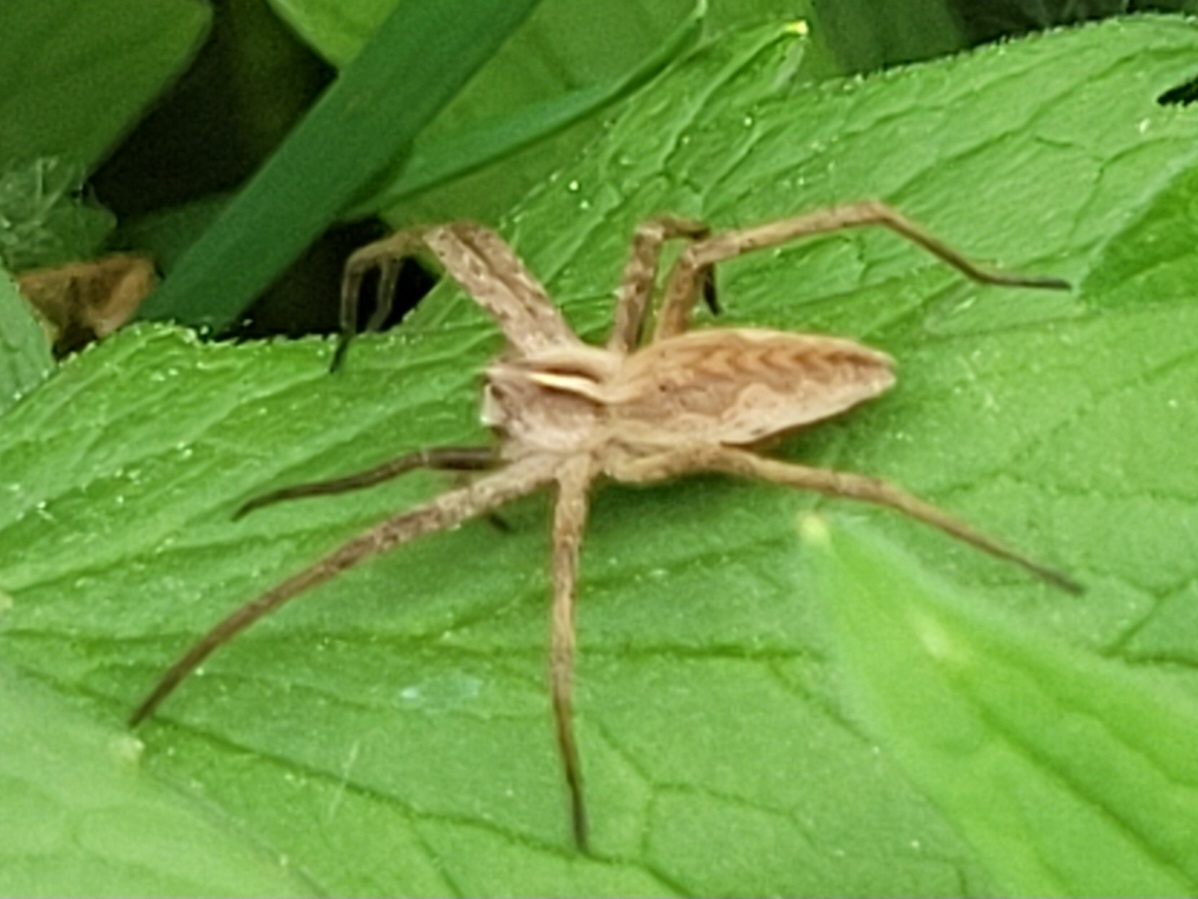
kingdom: Animalia
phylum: Arthropoda
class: Arachnida
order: Araneae
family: Pisauridae
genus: Pisaura
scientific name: Pisaura mirabilis
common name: Tent spider
